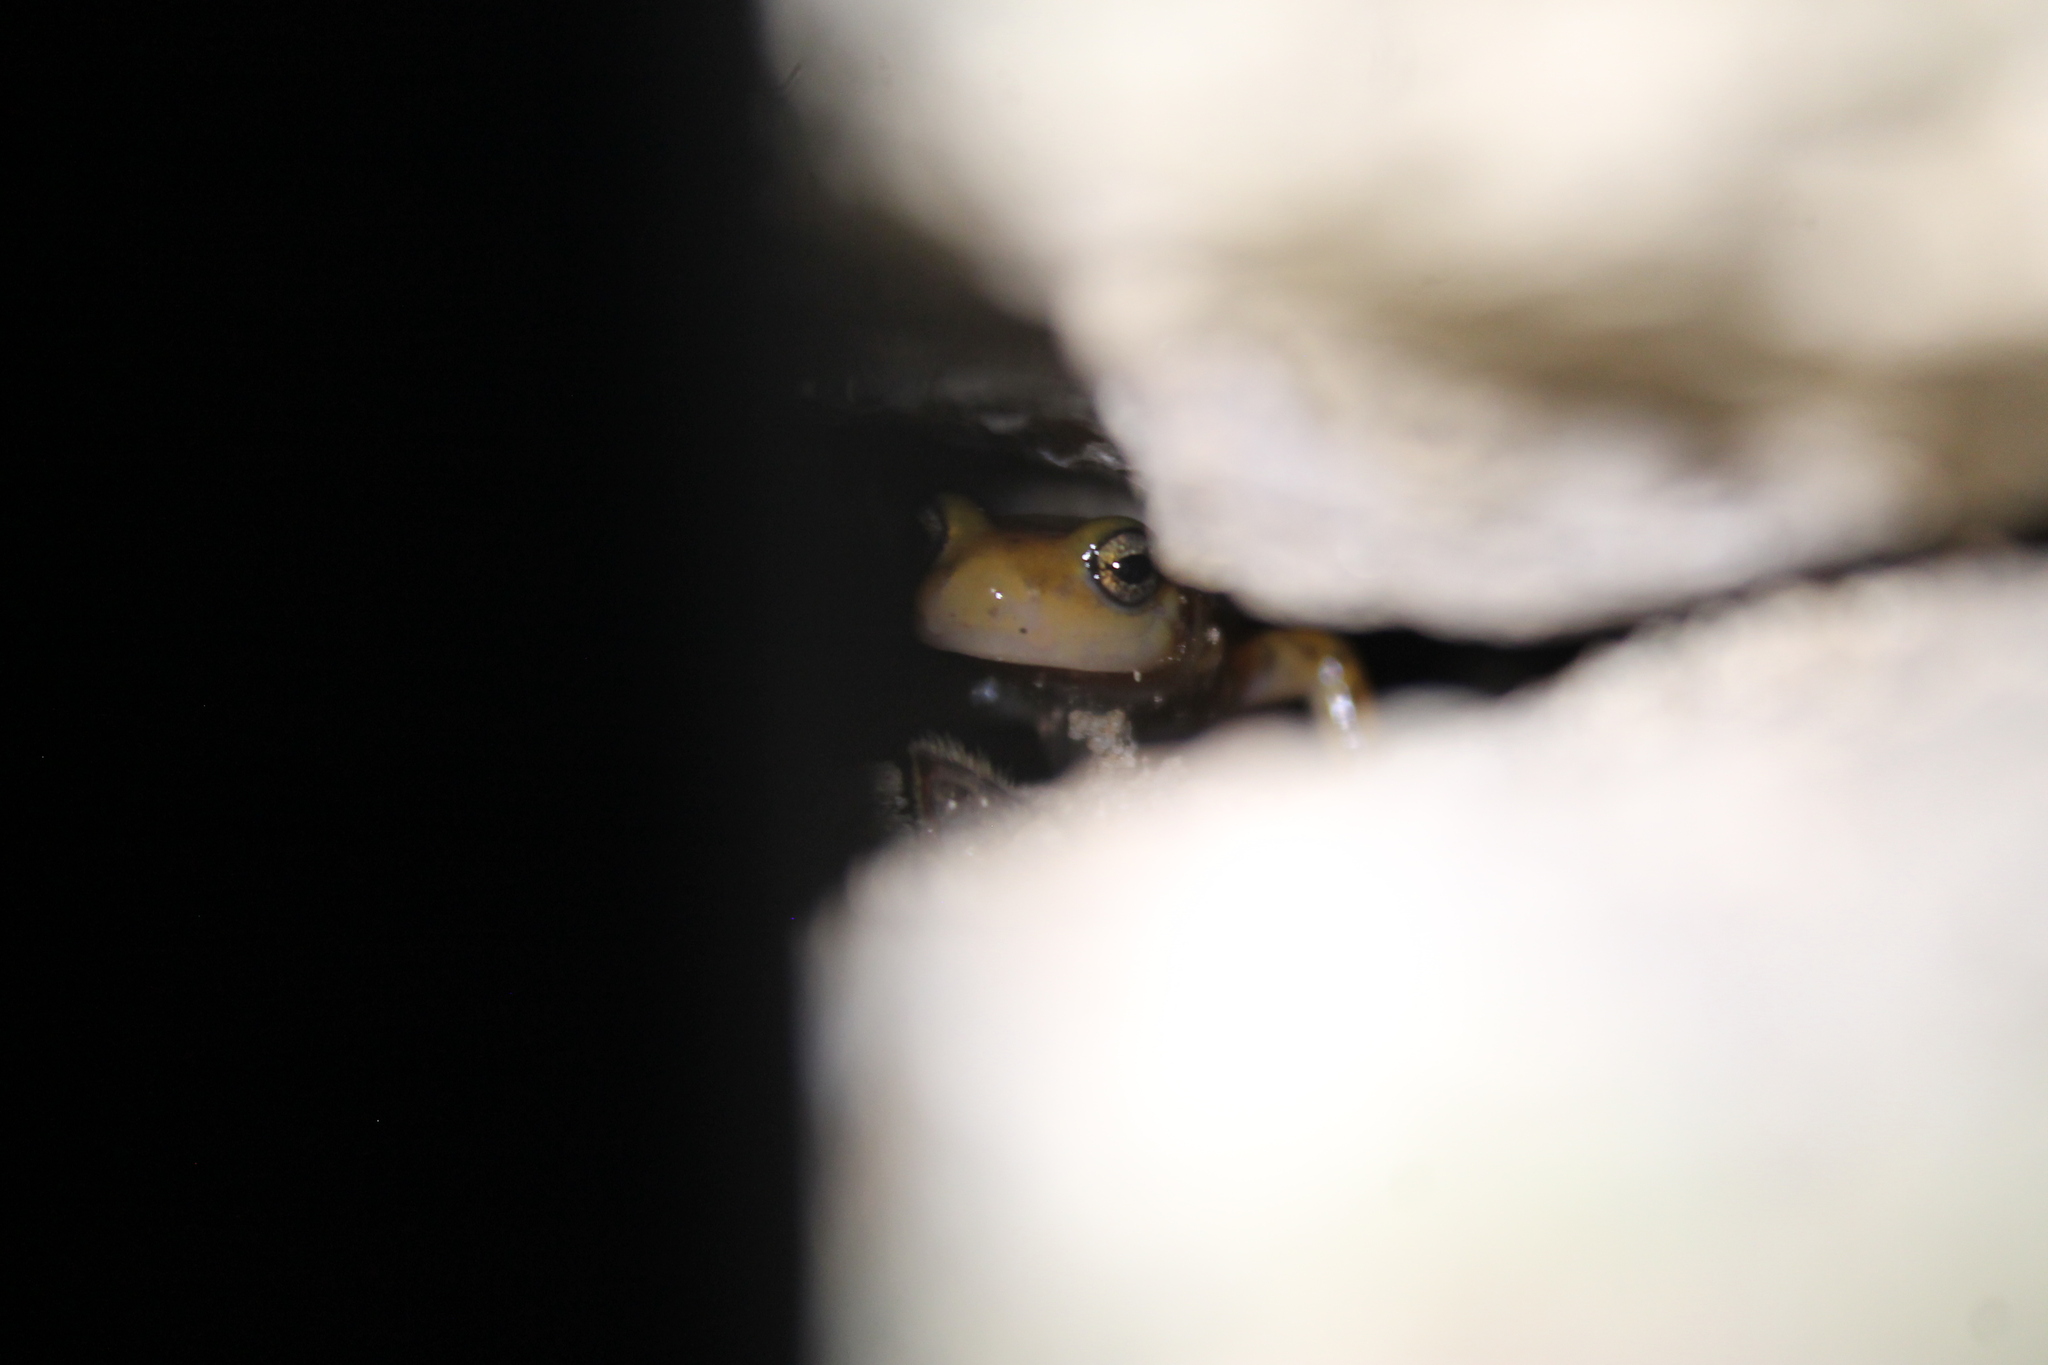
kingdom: Animalia
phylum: Chordata
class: Amphibia
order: Caudata
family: Plethodontidae
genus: Eurycea
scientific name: Eurycea longicauda
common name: Long-tailed salamander
